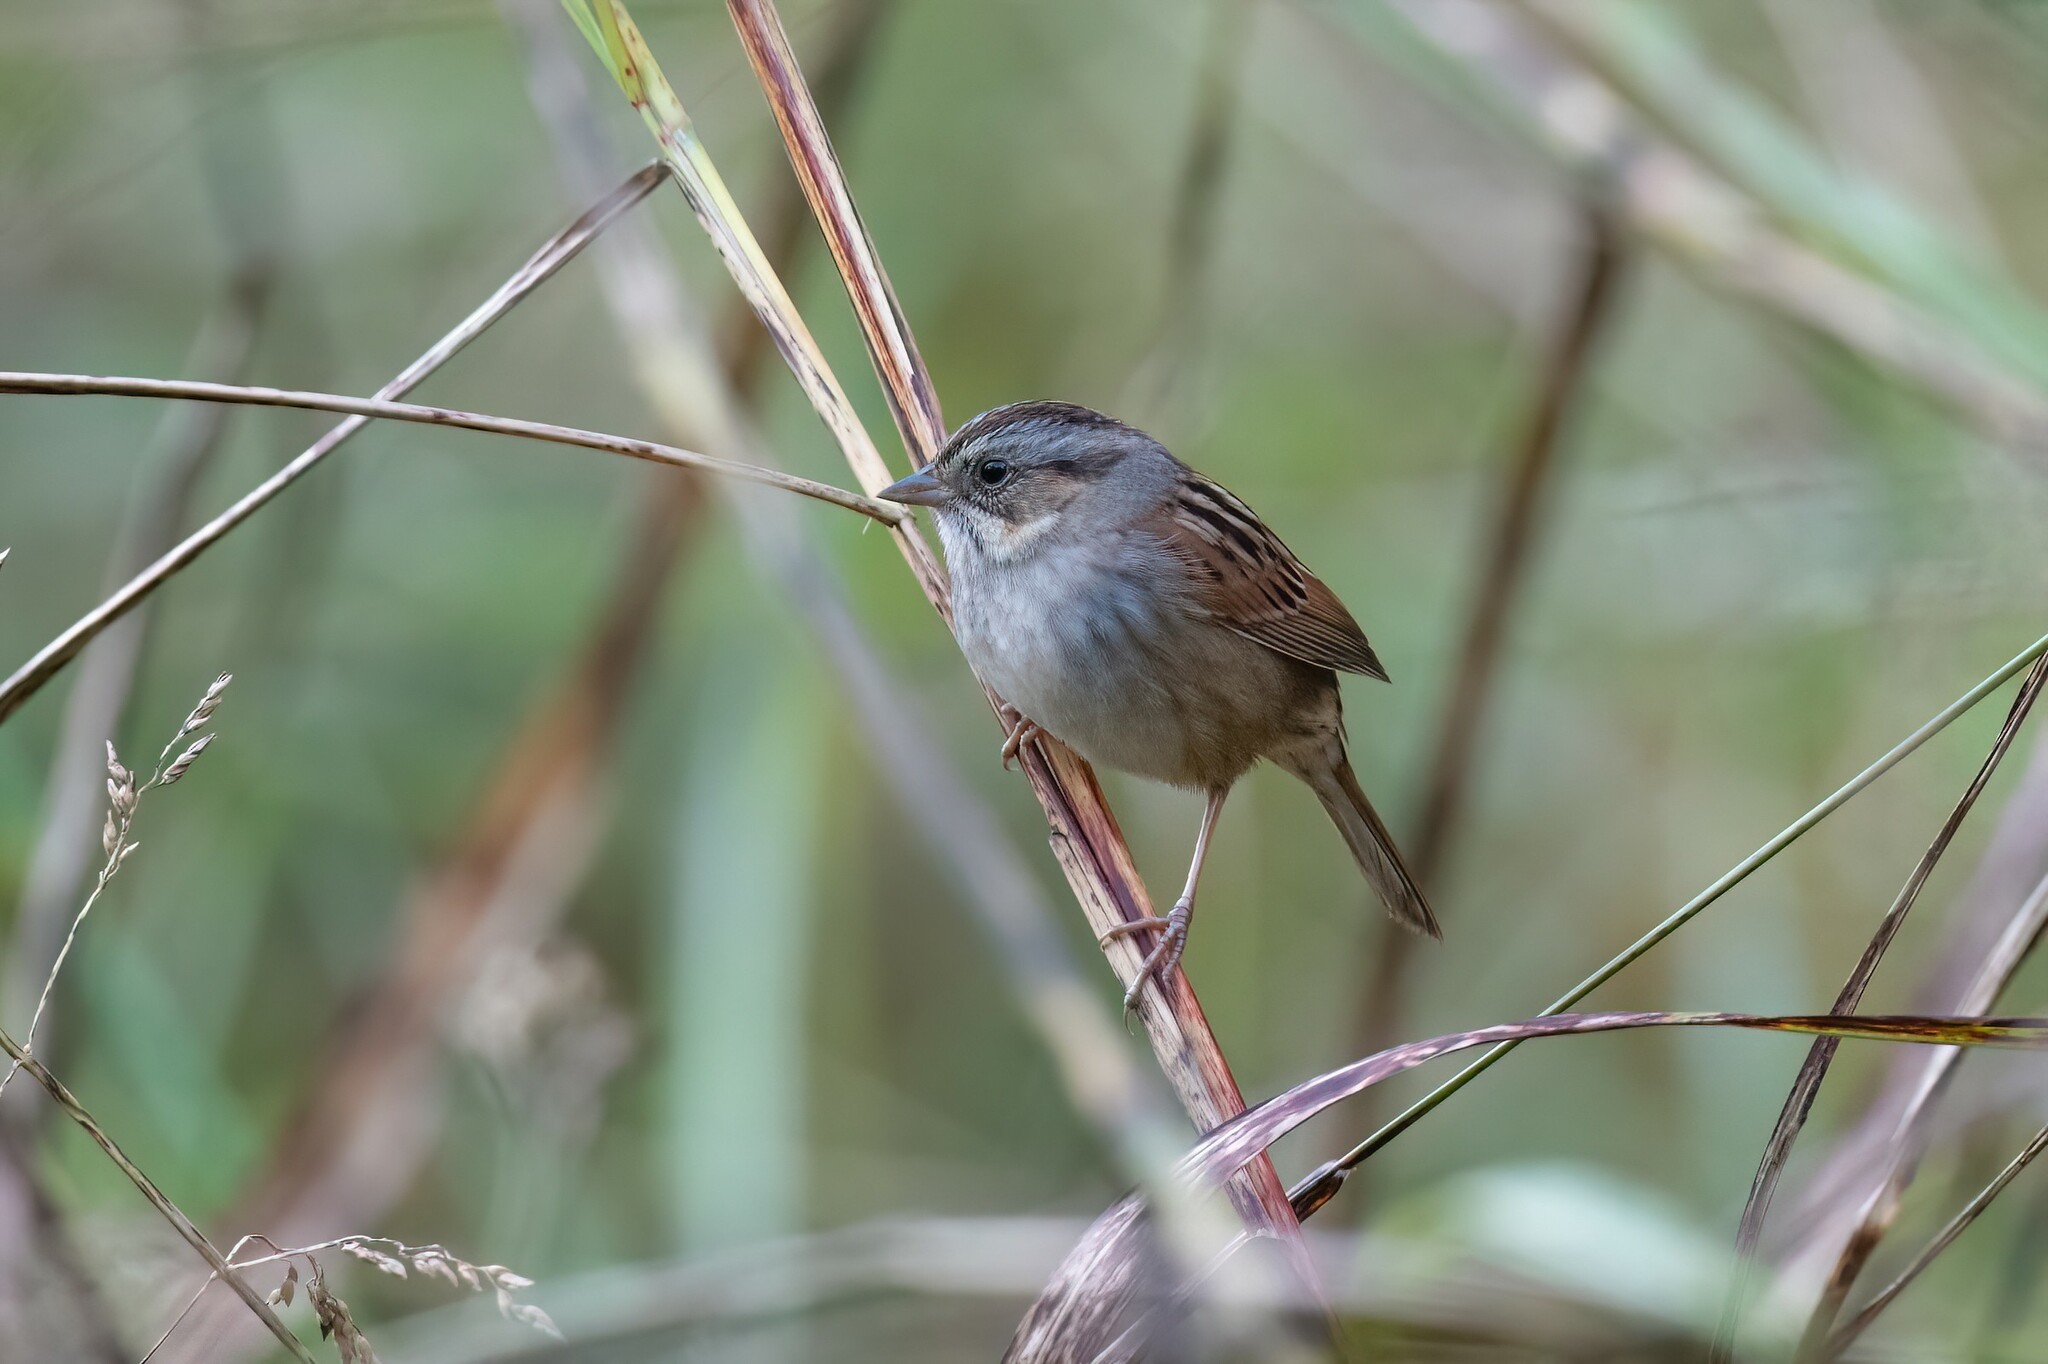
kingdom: Animalia
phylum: Chordata
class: Aves
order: Passeriformes
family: Passerellidae
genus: Melospiza
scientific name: Melospiza georgiana
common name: Swamp sparrow
